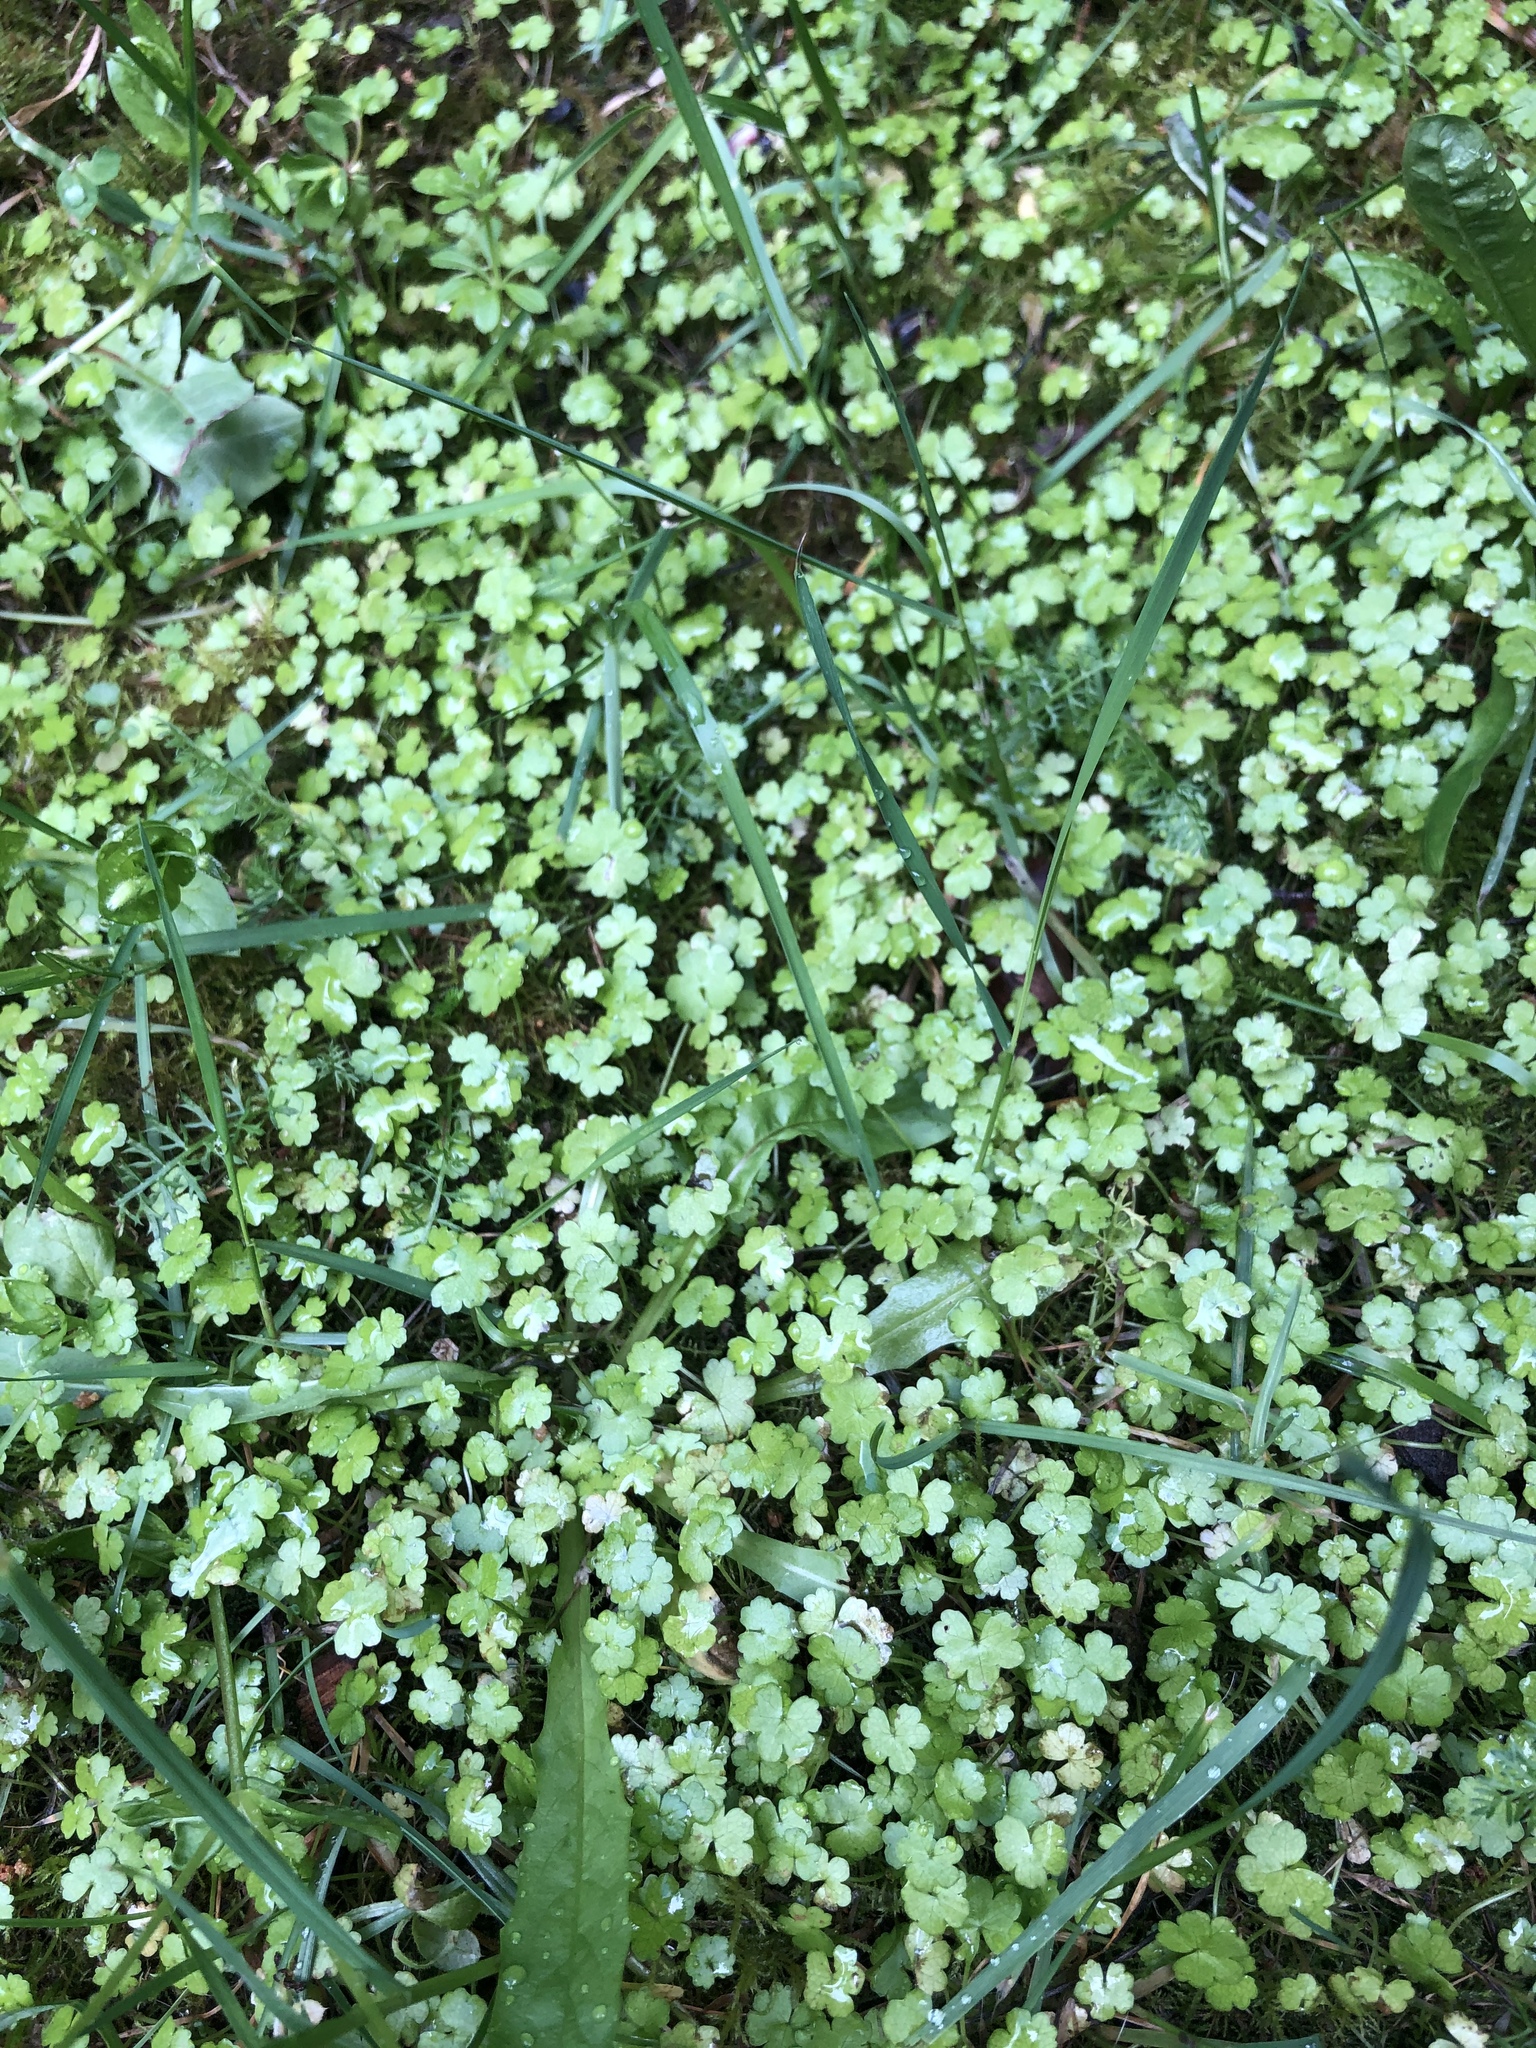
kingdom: Plantae
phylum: Tracheophyta
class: Magnoliopsida
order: Apiales
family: Araliaceae
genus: Hydrocotyle
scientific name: Hydrocotyle heteromeria
